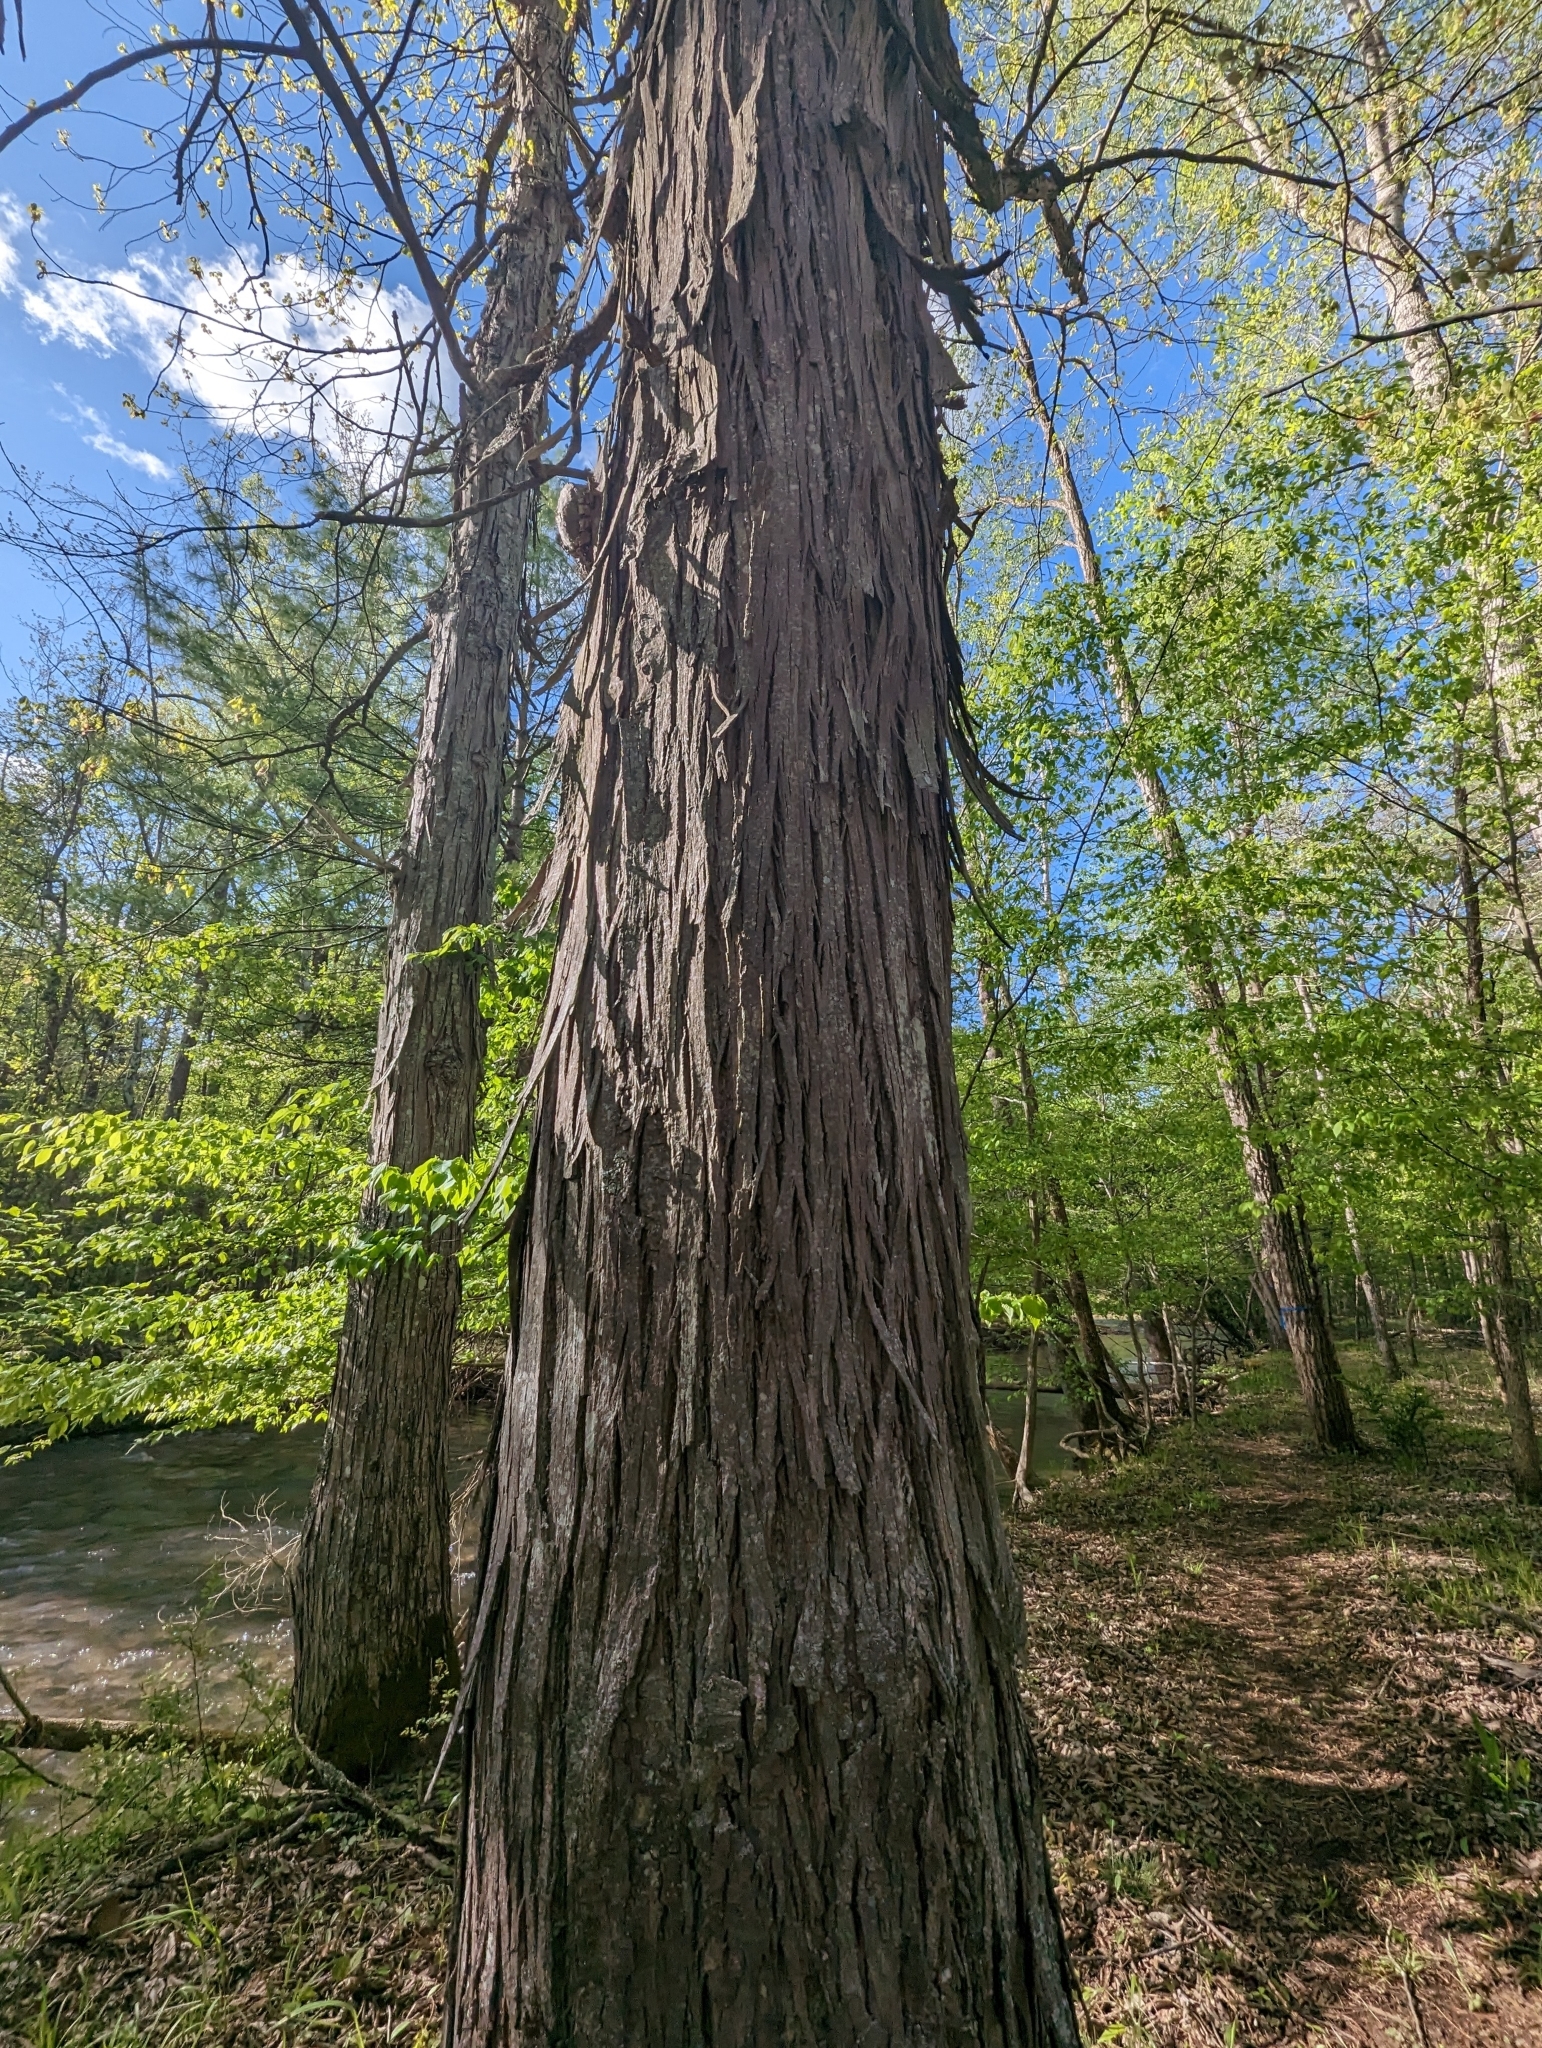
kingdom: Plantae
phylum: Tracheophyta
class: Magnoliopsida
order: Fagales
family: Juglandaceae
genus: Carya
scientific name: Carya ovata
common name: Shagbark hickory
